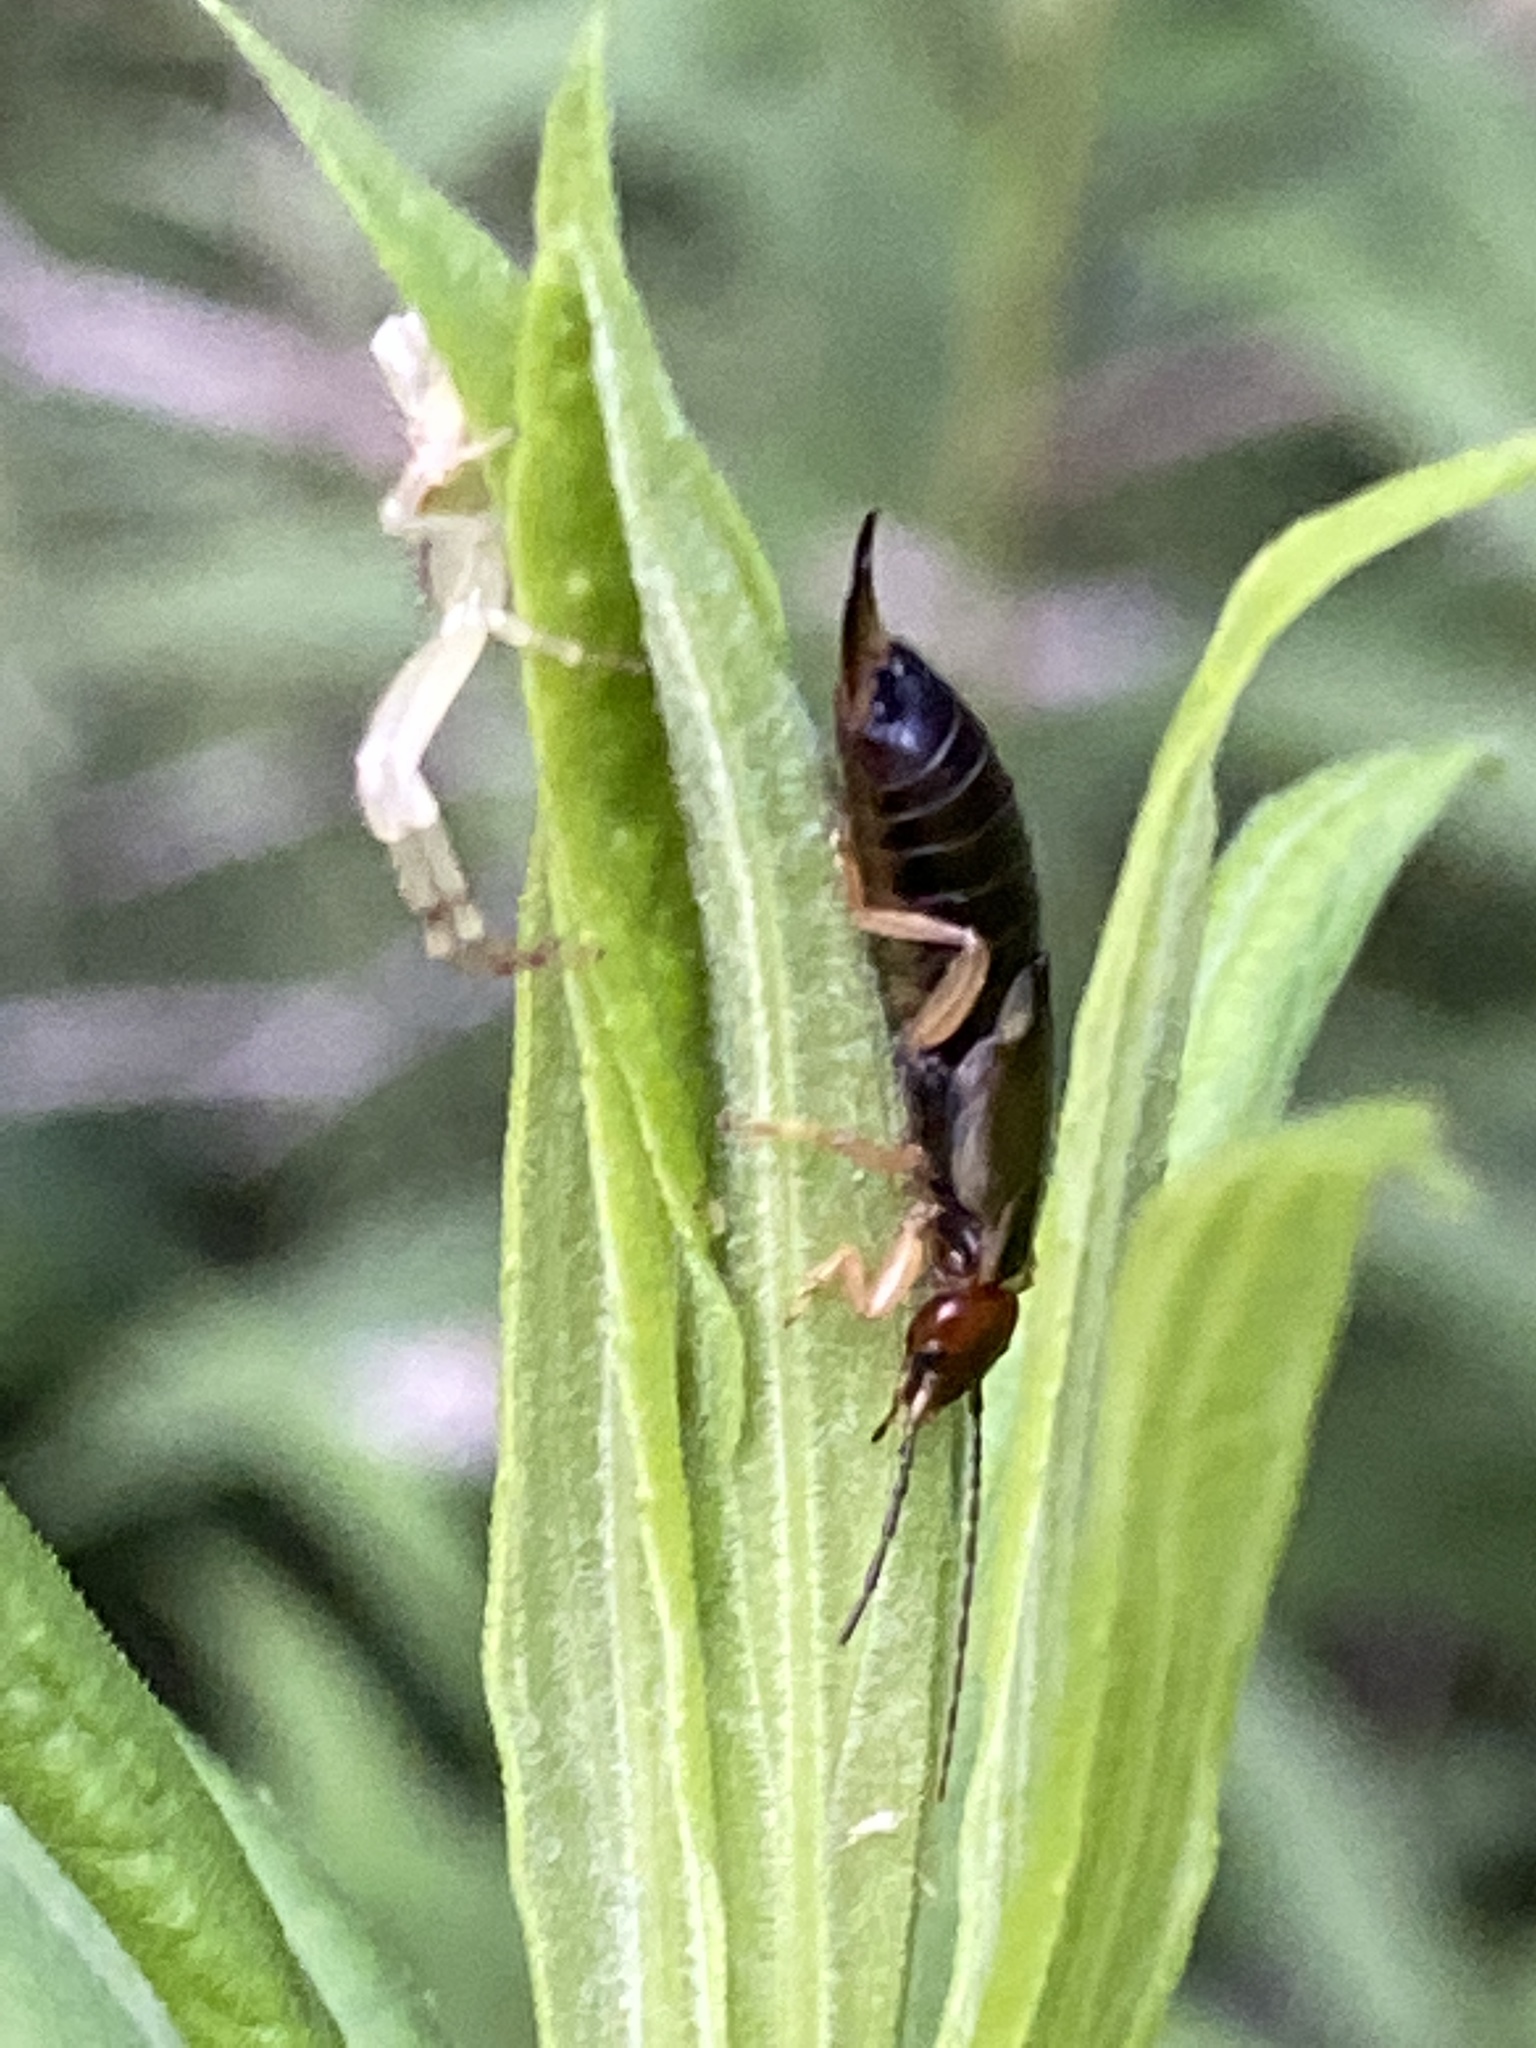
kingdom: Animalia
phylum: Arthropoda
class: Insecta
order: Dermaptera
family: Forficulidae
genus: Forficula
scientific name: Forficula
